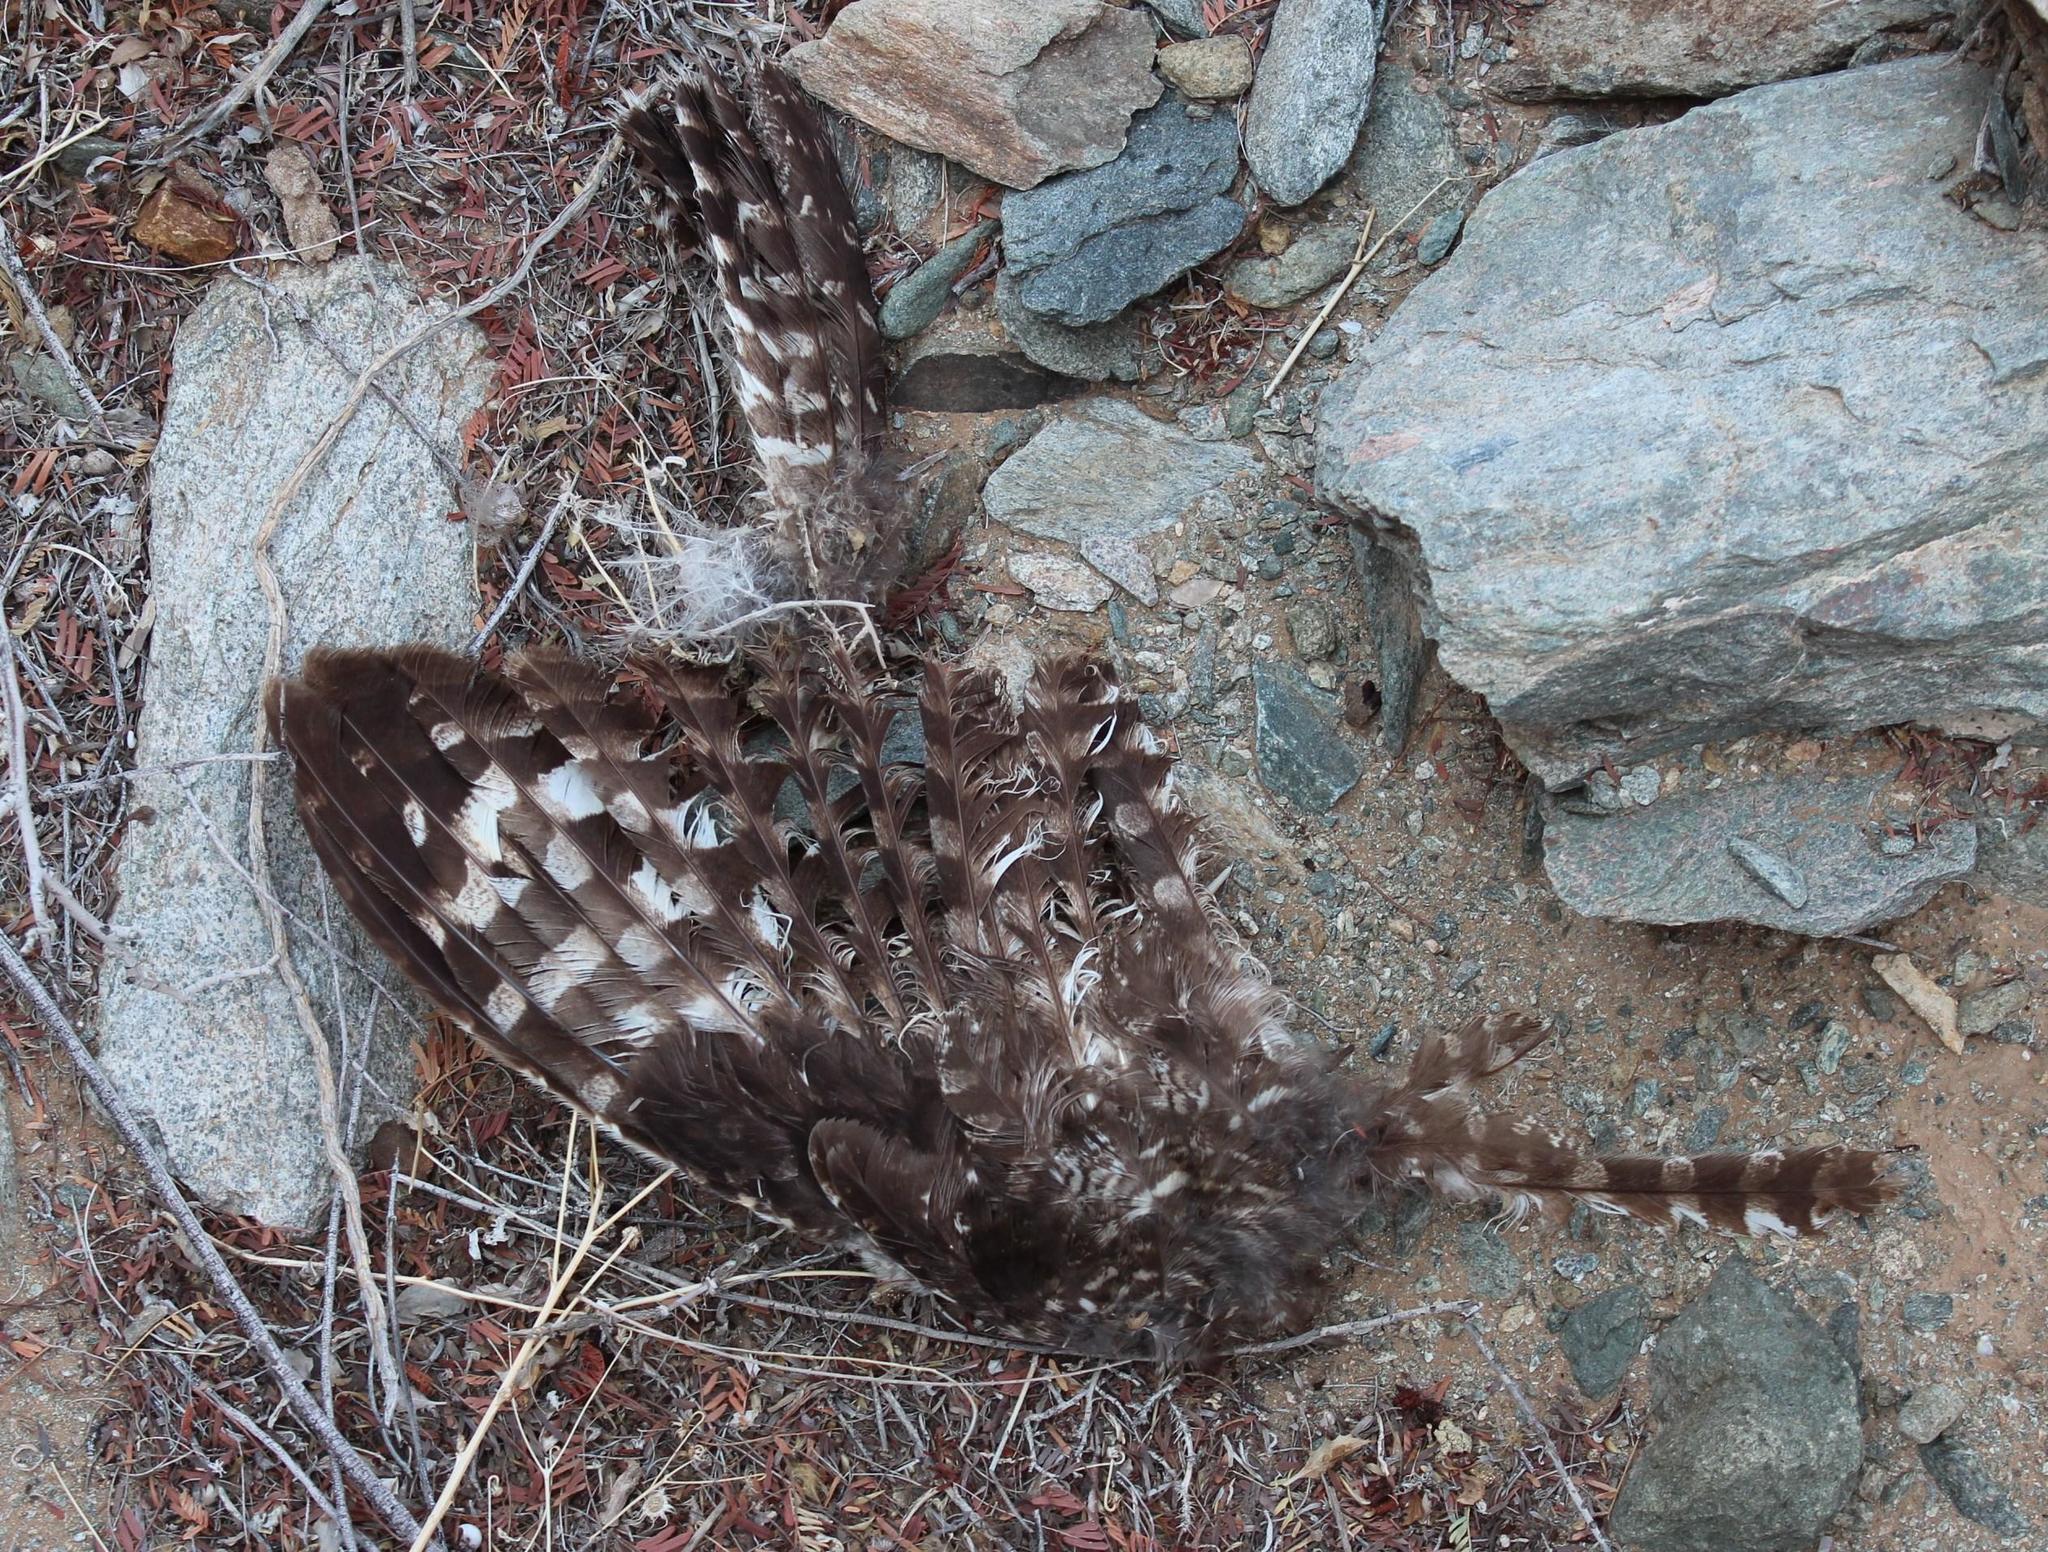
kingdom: Animalia
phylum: Chordata
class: Aves
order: Strigiformes
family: Strigidae
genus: Bubo
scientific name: Bubo africanus
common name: Spotted eagle-owl
